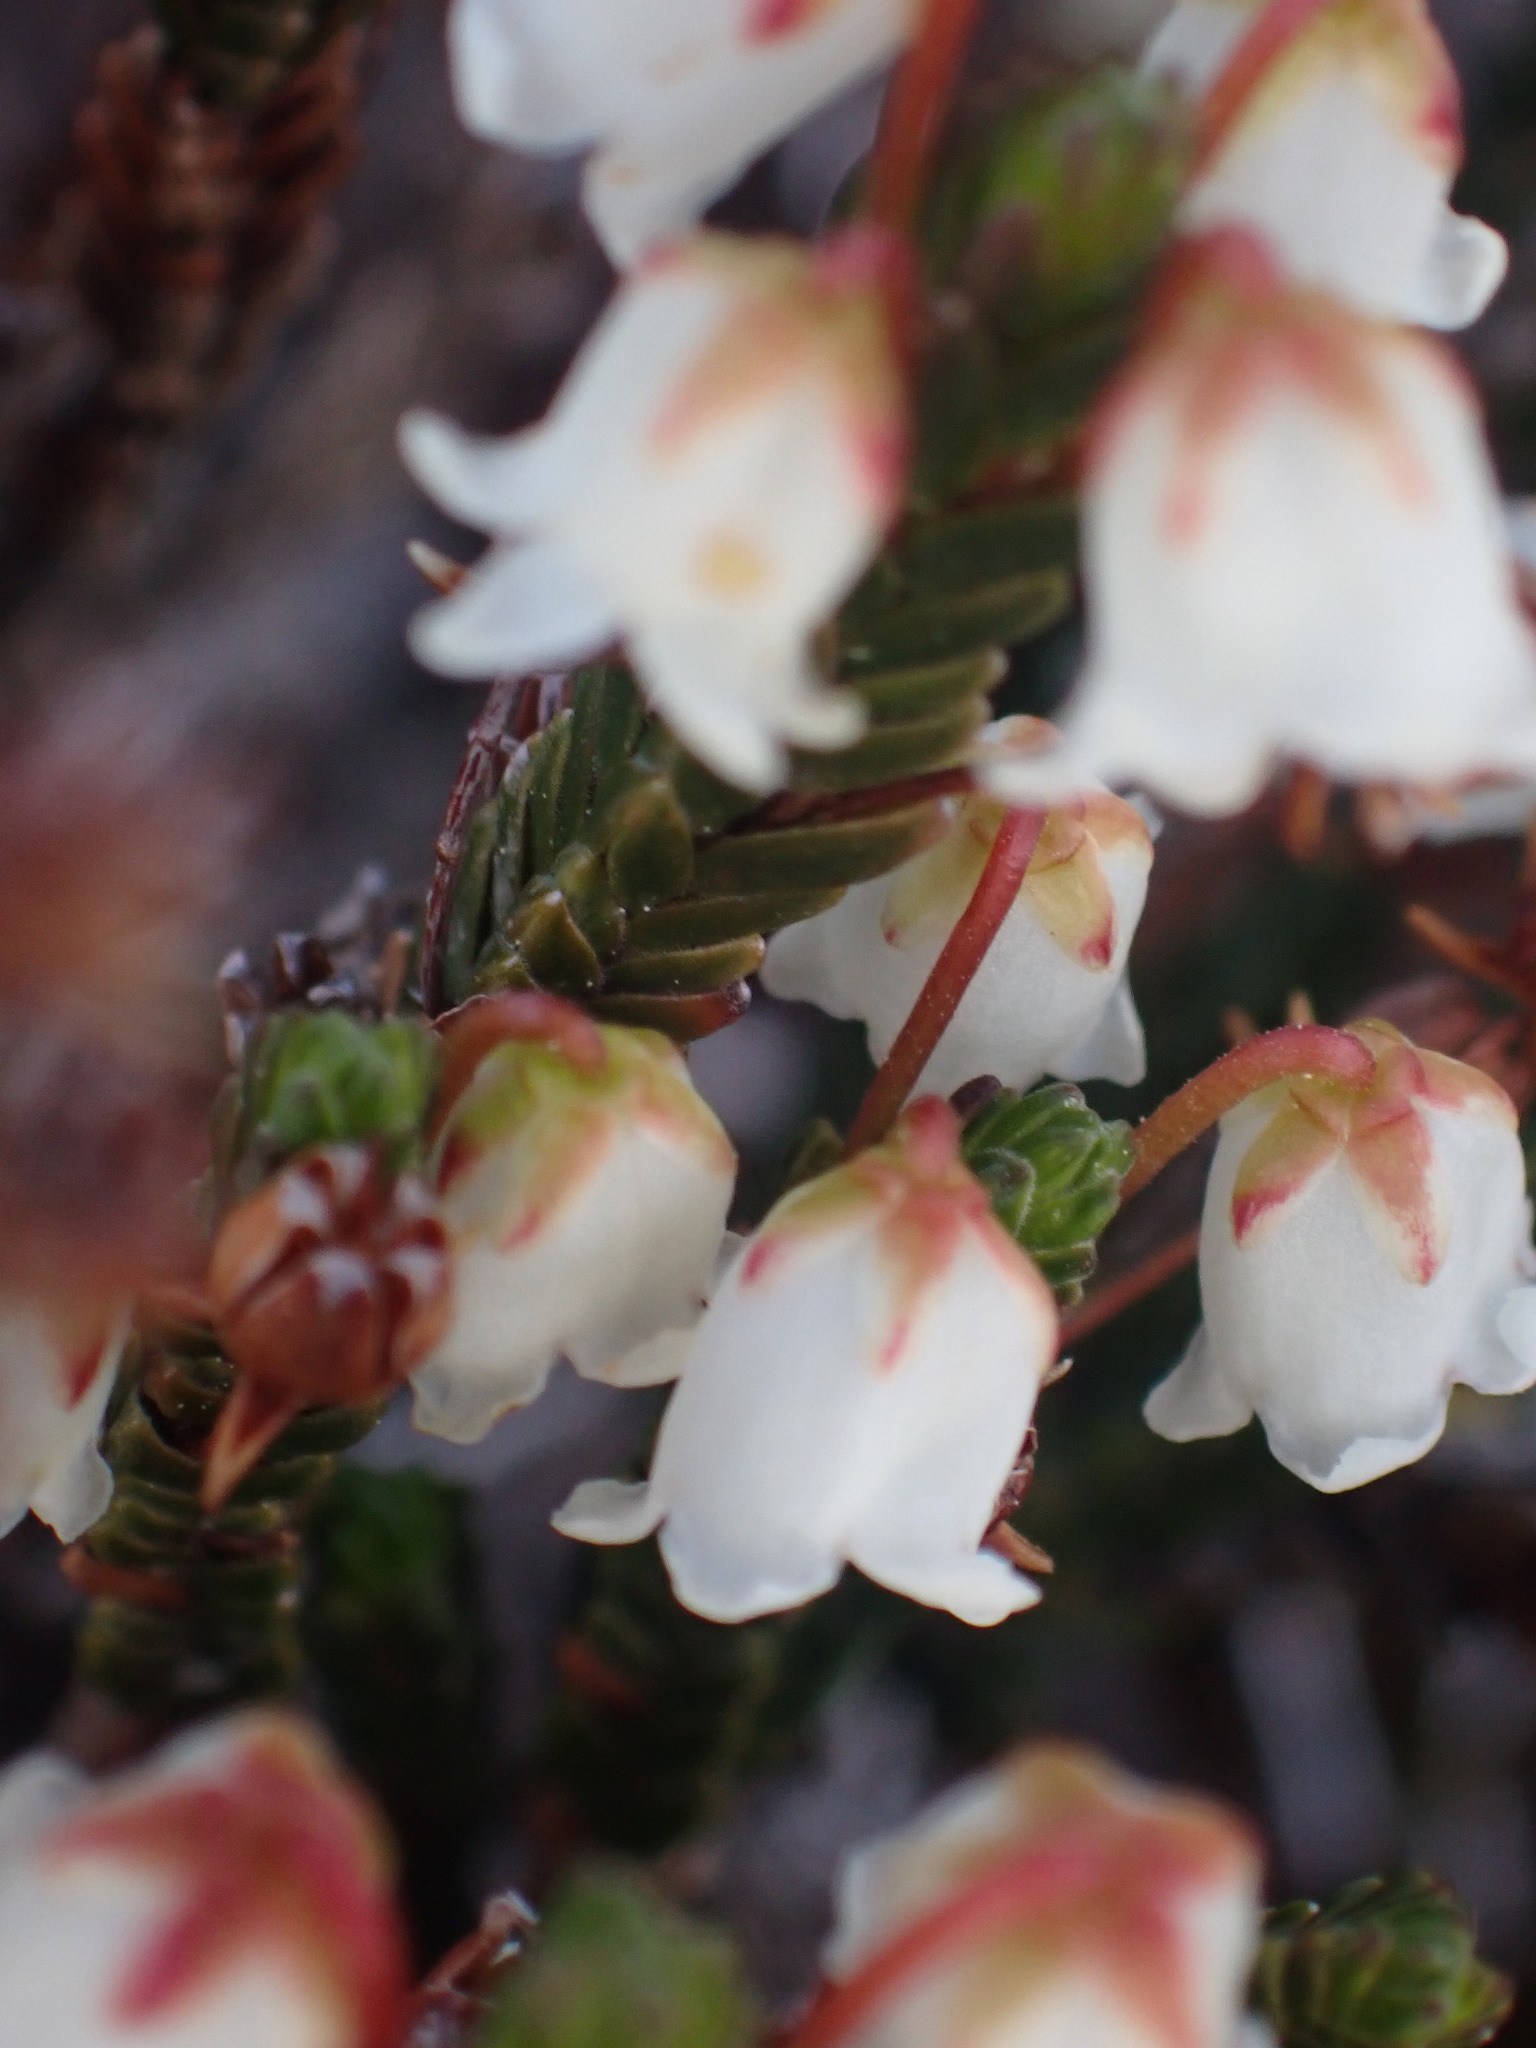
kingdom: Plantae
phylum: Tracheophyta
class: Magnoliopsida
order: Ericales
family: Ericaceae
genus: Cassiope
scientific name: Cassiope tetragona
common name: Arctic bell heather
